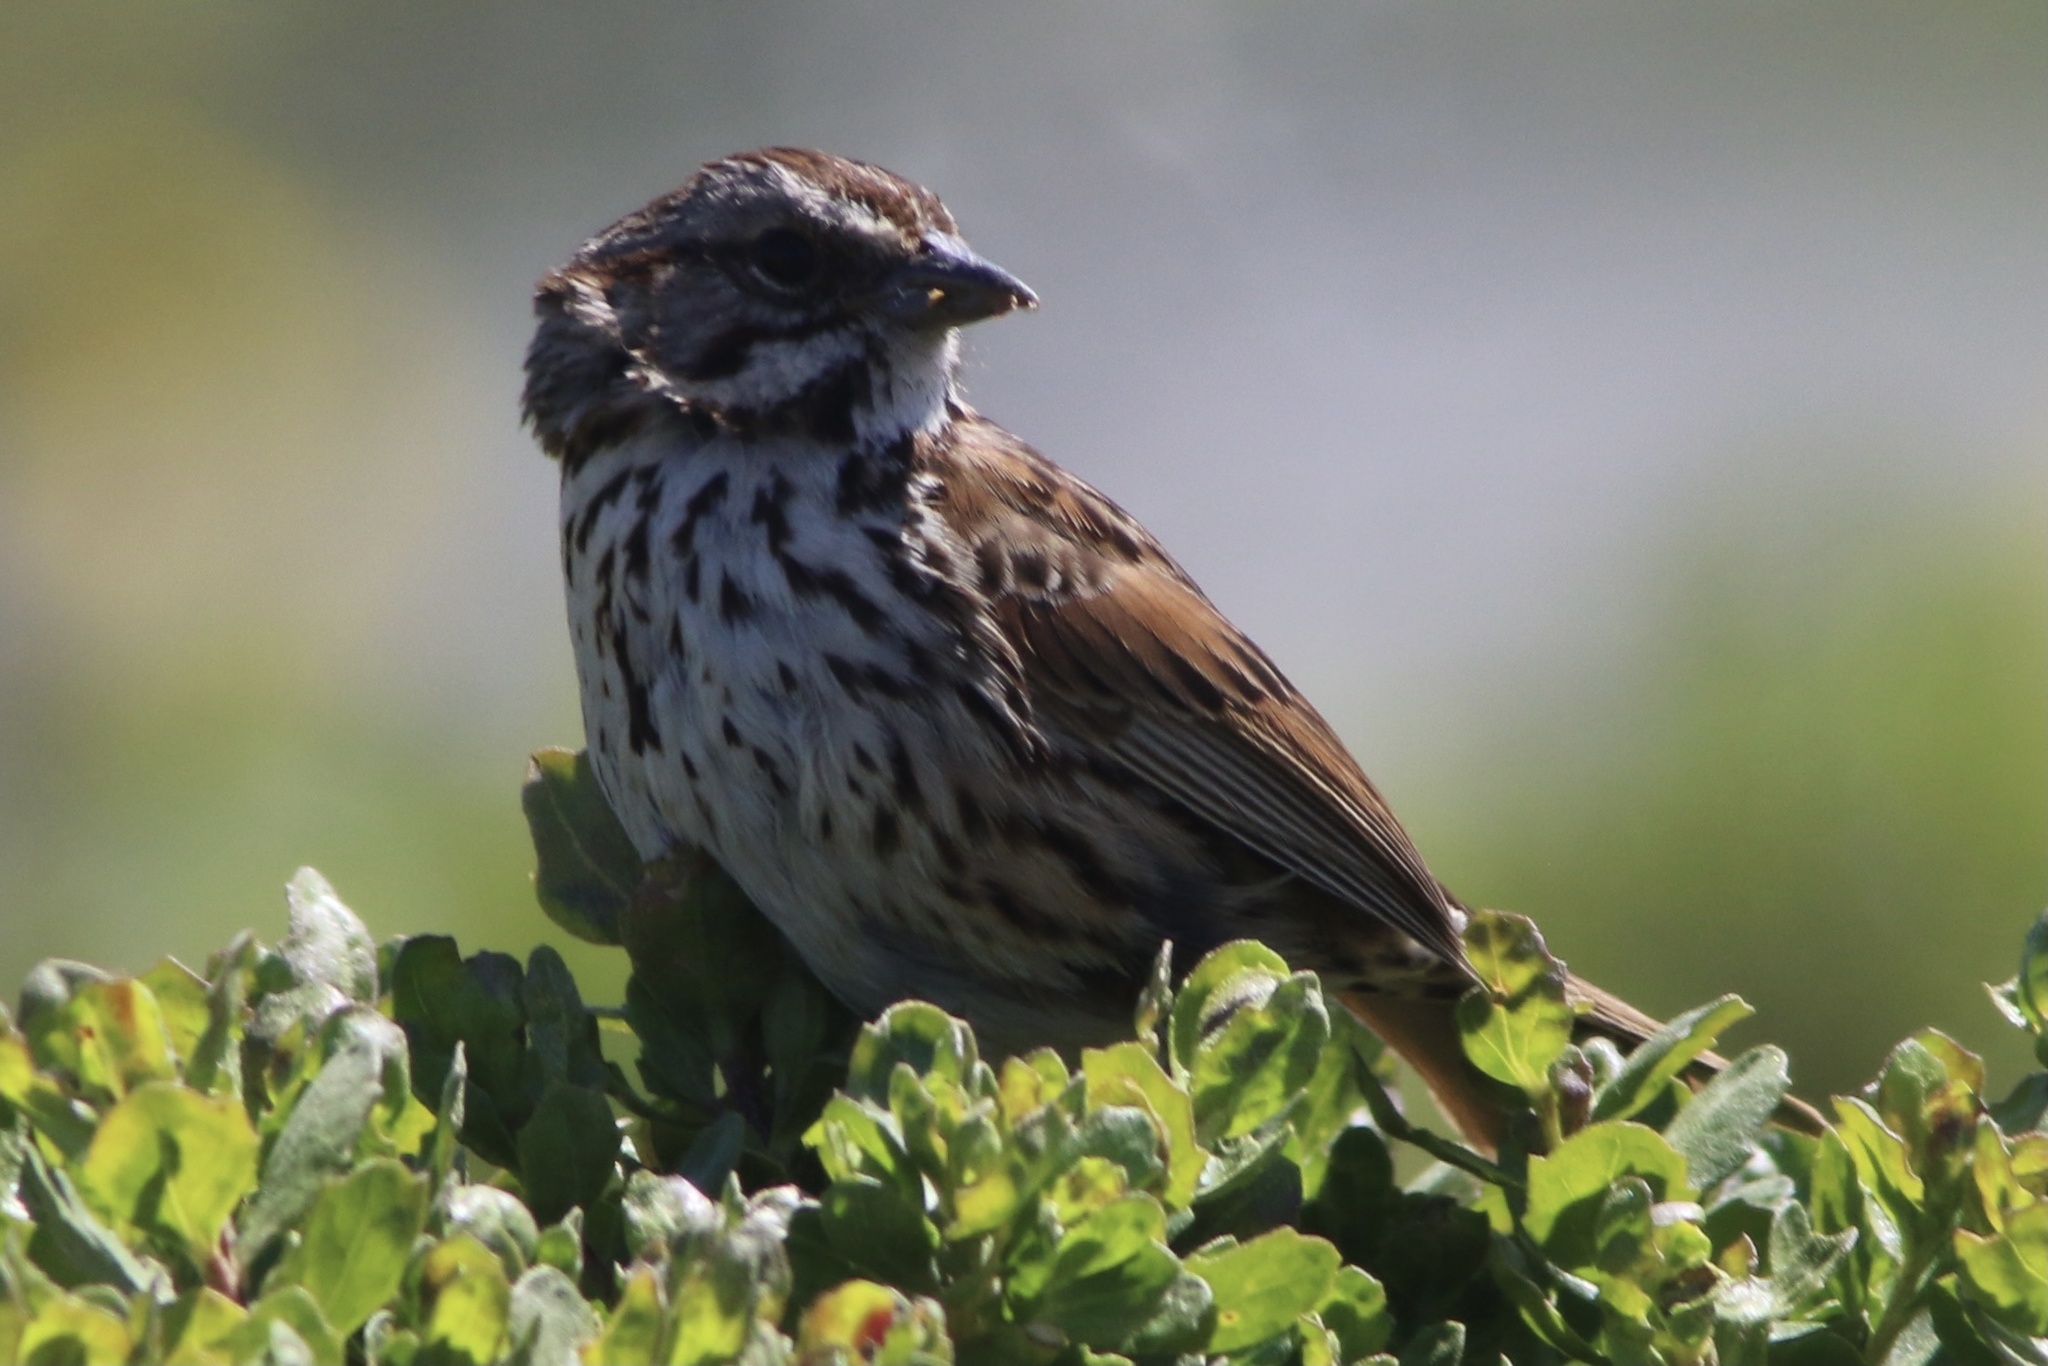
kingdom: Animalia
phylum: Chordata
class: Aves
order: Passeriformes
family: Passerellidae
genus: Melospiza
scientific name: Melospiza melodia
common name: Song sparrow
